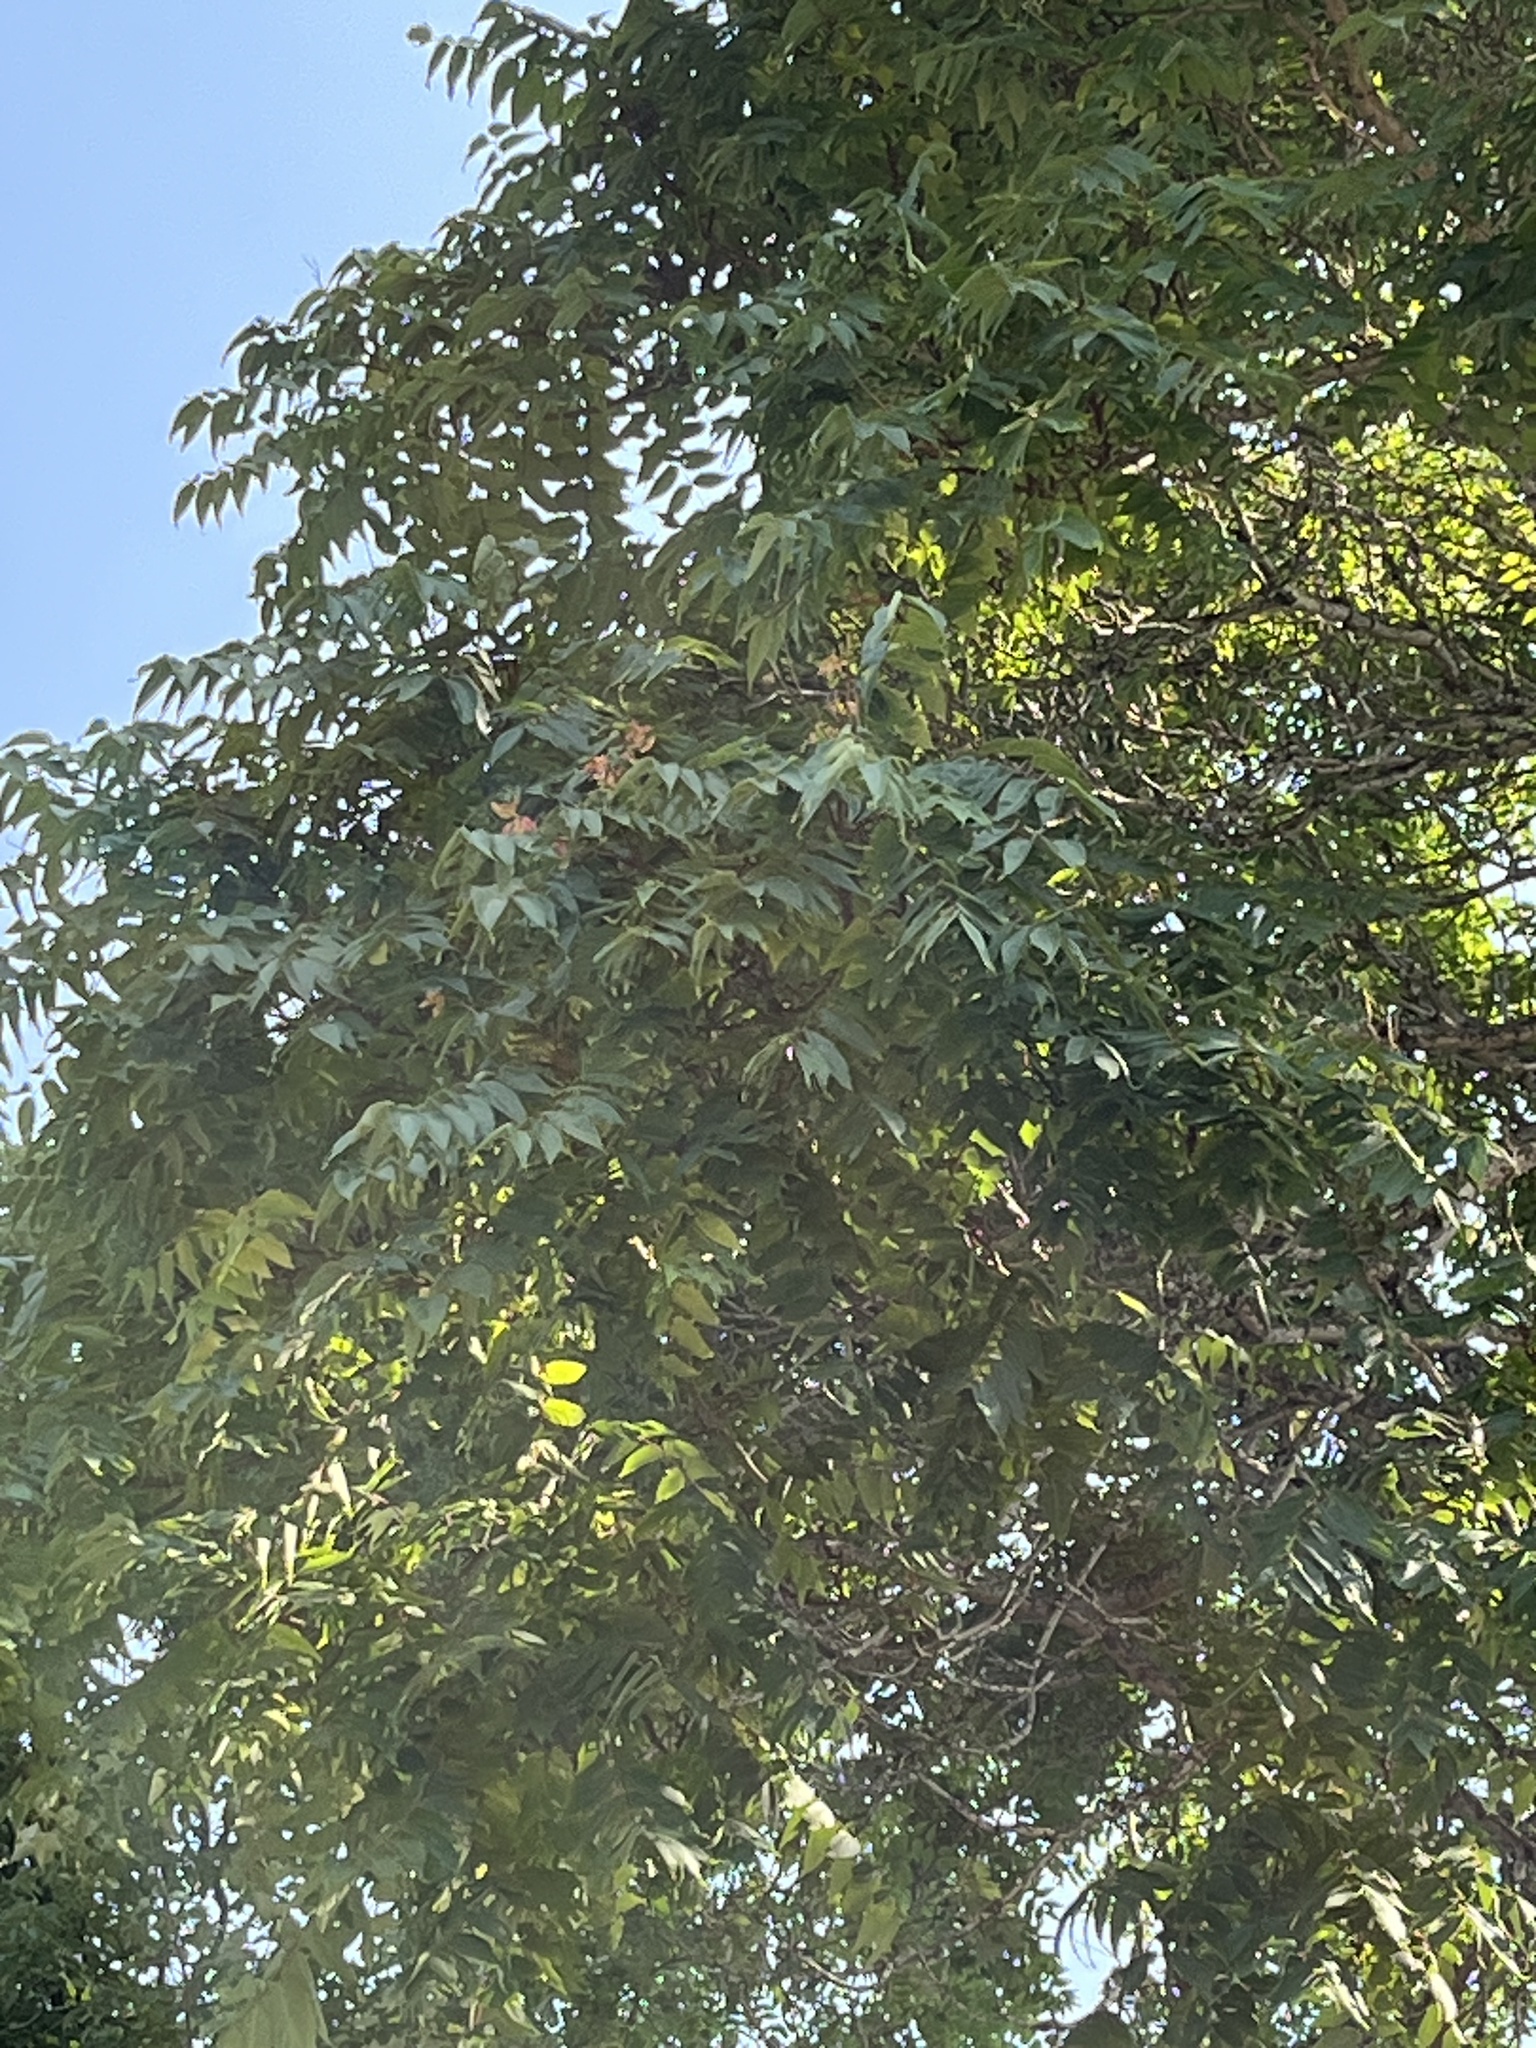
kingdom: Plantae
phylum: Tracheophyta
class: Magnoliopsida
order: Sapindales
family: Simaroubaceae
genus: Ailanthus
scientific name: Ailanthus altissima
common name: Tree-of-heaven
